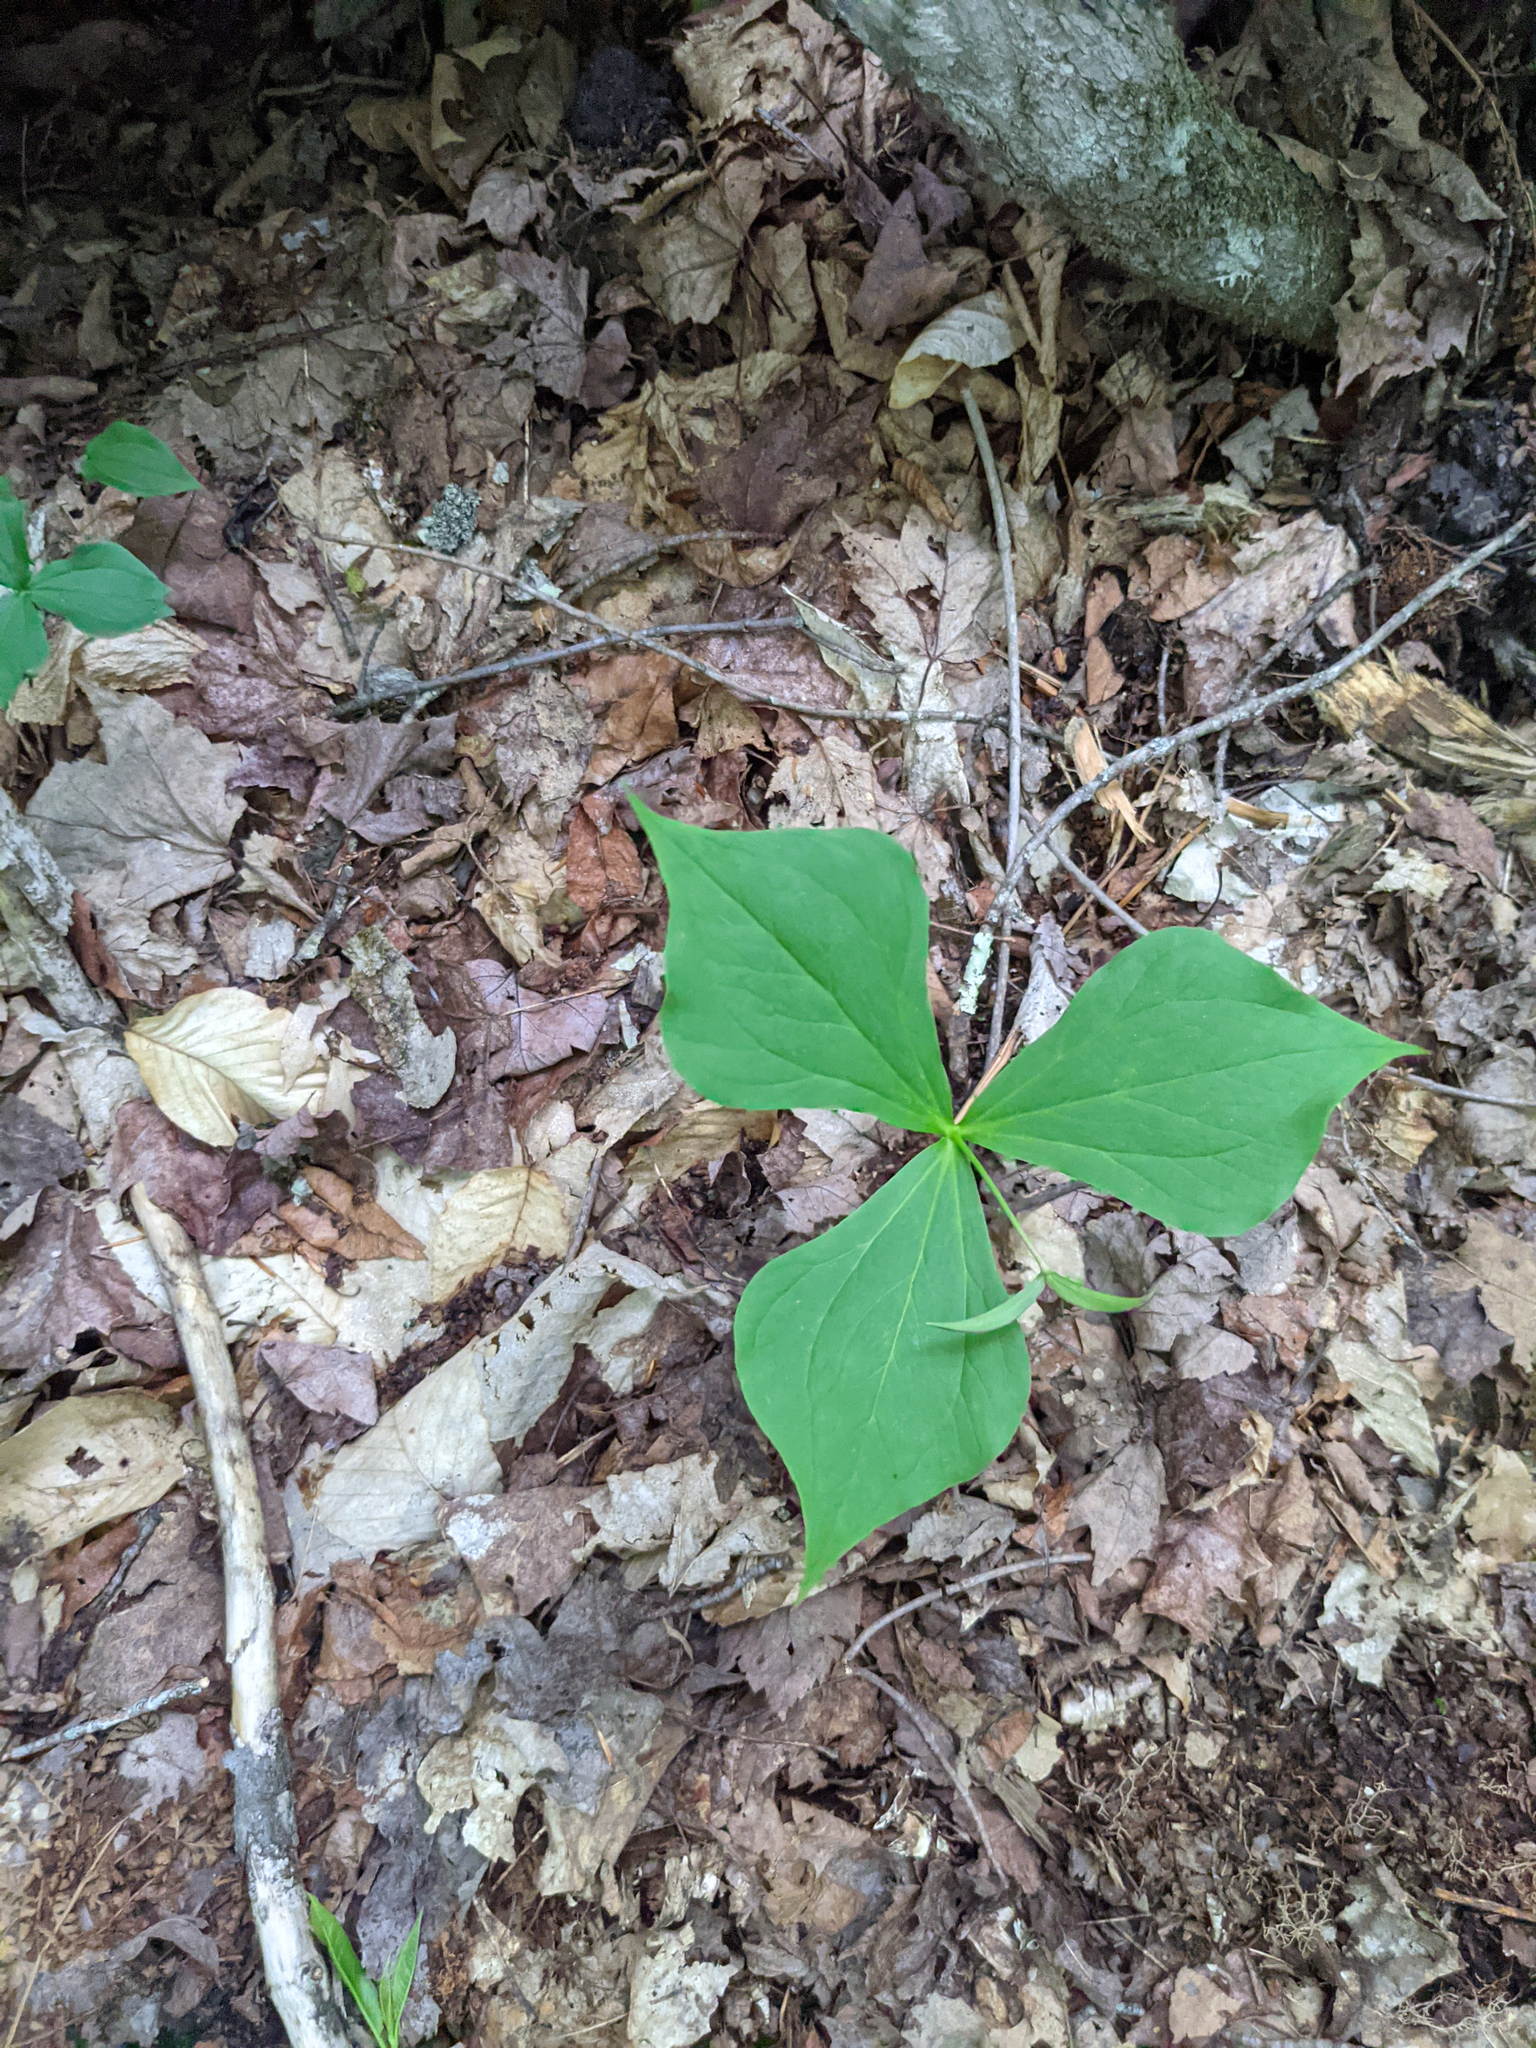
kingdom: Plantae
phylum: Tracheophyta
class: Liliopsida
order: Liliales
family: Melanthiaceae
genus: Trillium
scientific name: Trillium erectum
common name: Purple trillium
